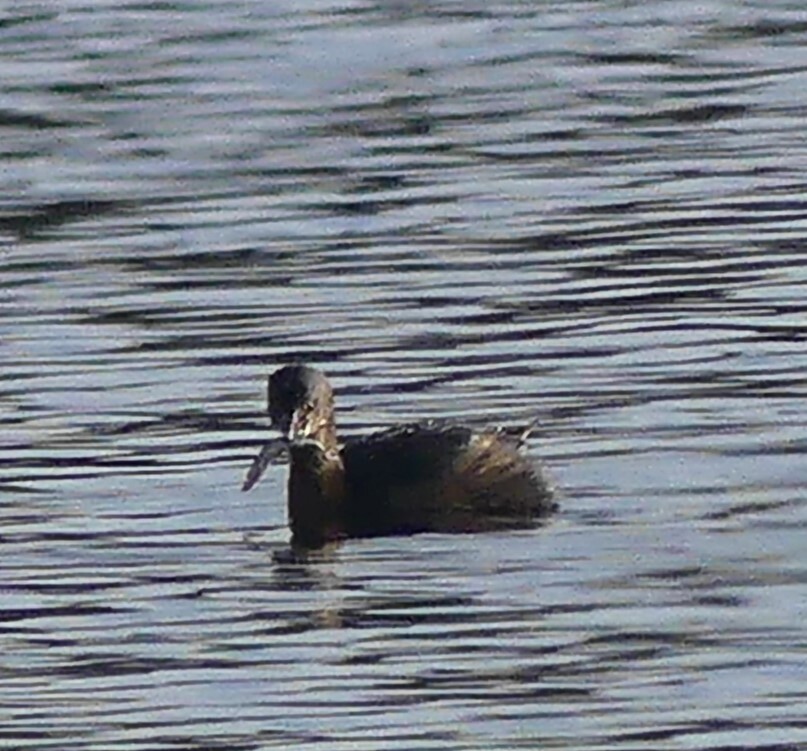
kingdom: Animalia
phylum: Chordata
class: Aves
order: Podicipediformes
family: Podicipedidae
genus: Podilymbus
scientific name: Podilymbus podiceps
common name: Pied-billed grebe
